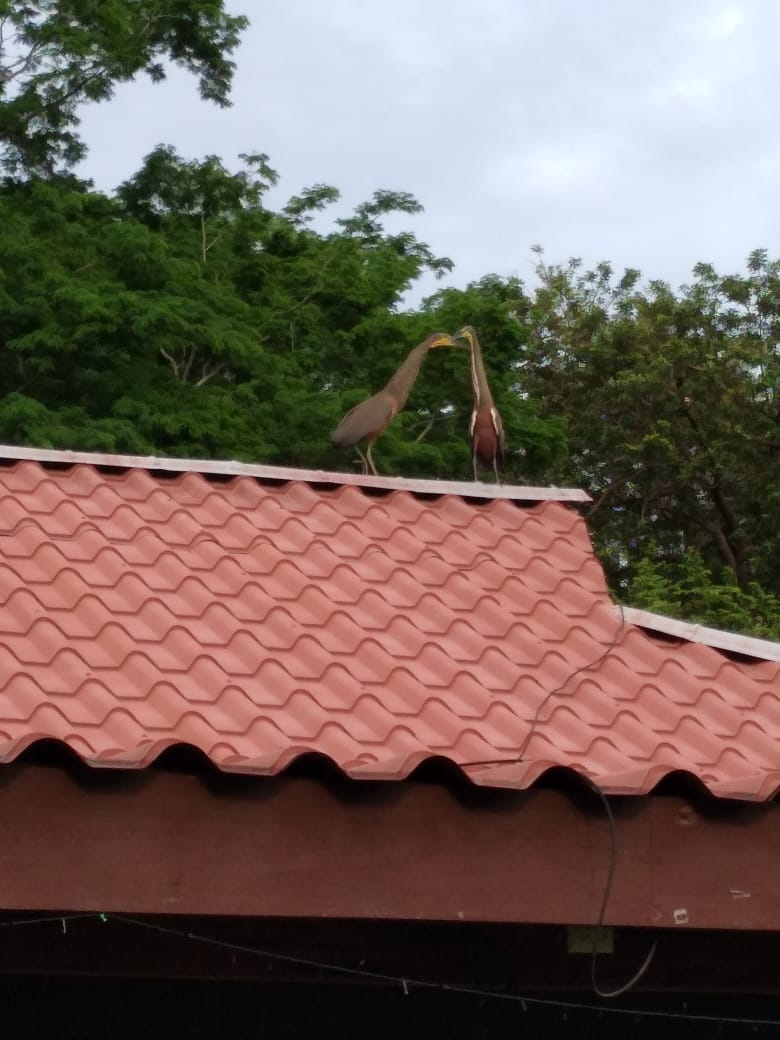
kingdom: Animalia
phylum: Chordata
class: Aves
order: Pelecaniformes
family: Ardeidae
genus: Tigrisoma
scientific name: Tigrisoma mexicanum
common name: Bare-throated tiger-heron
